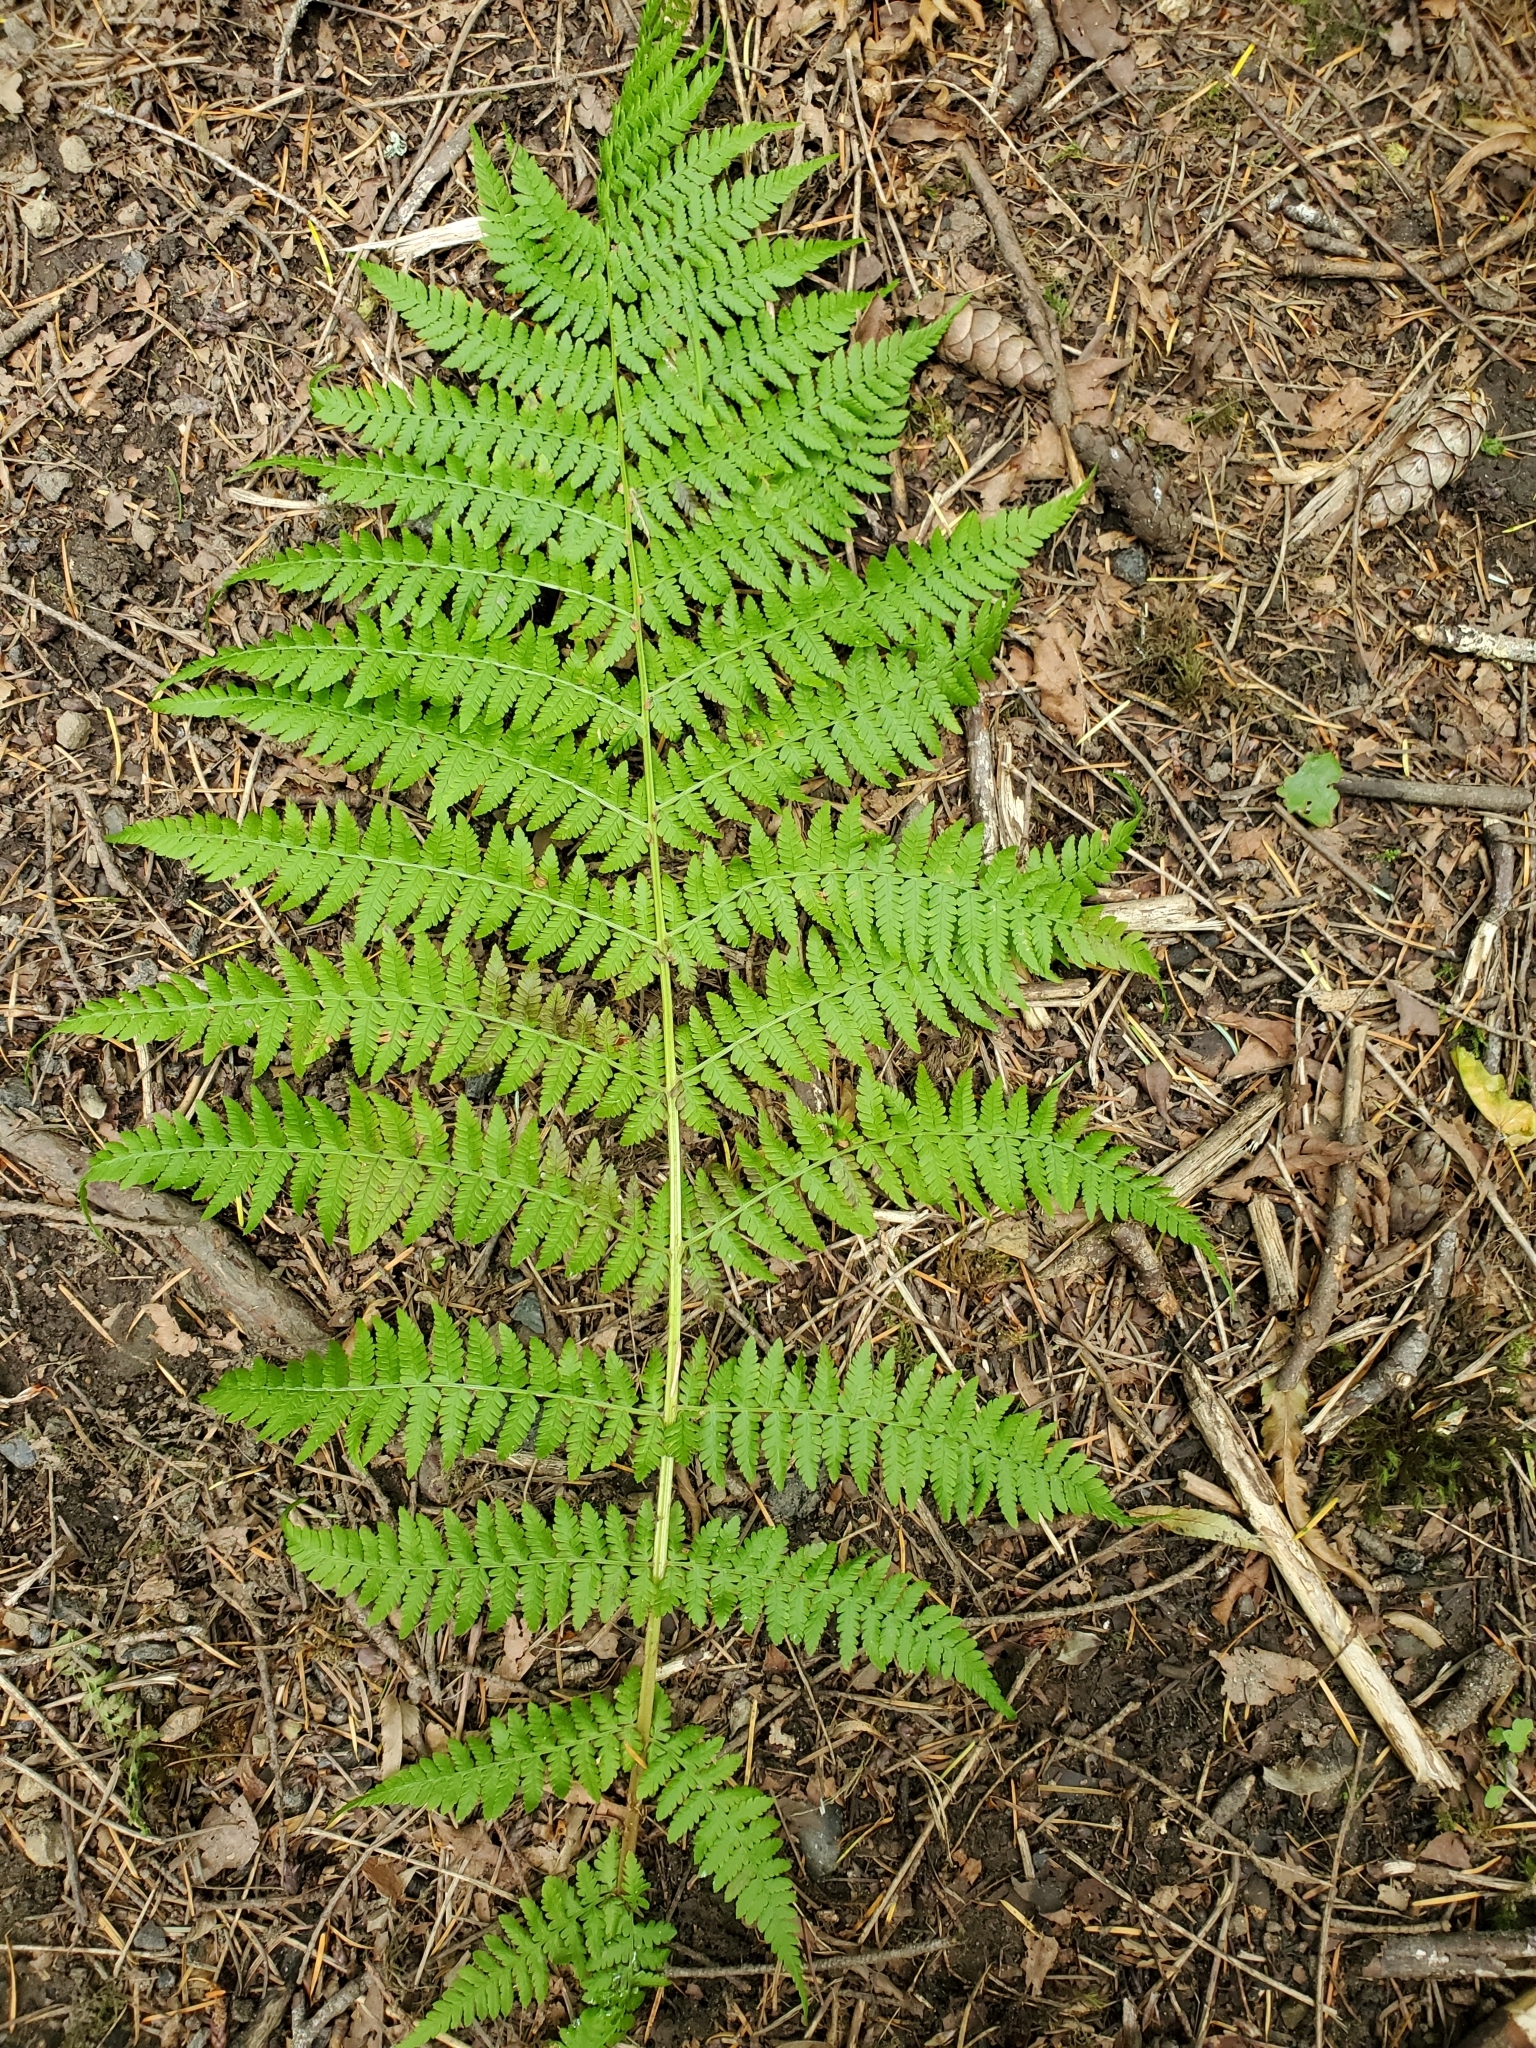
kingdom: Plantae
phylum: Tracheophyta
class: Polypodiopsida
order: Polypodiales
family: Athyriaceae
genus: Athyrium
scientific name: Athyrium filix-femina
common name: Lady fern
